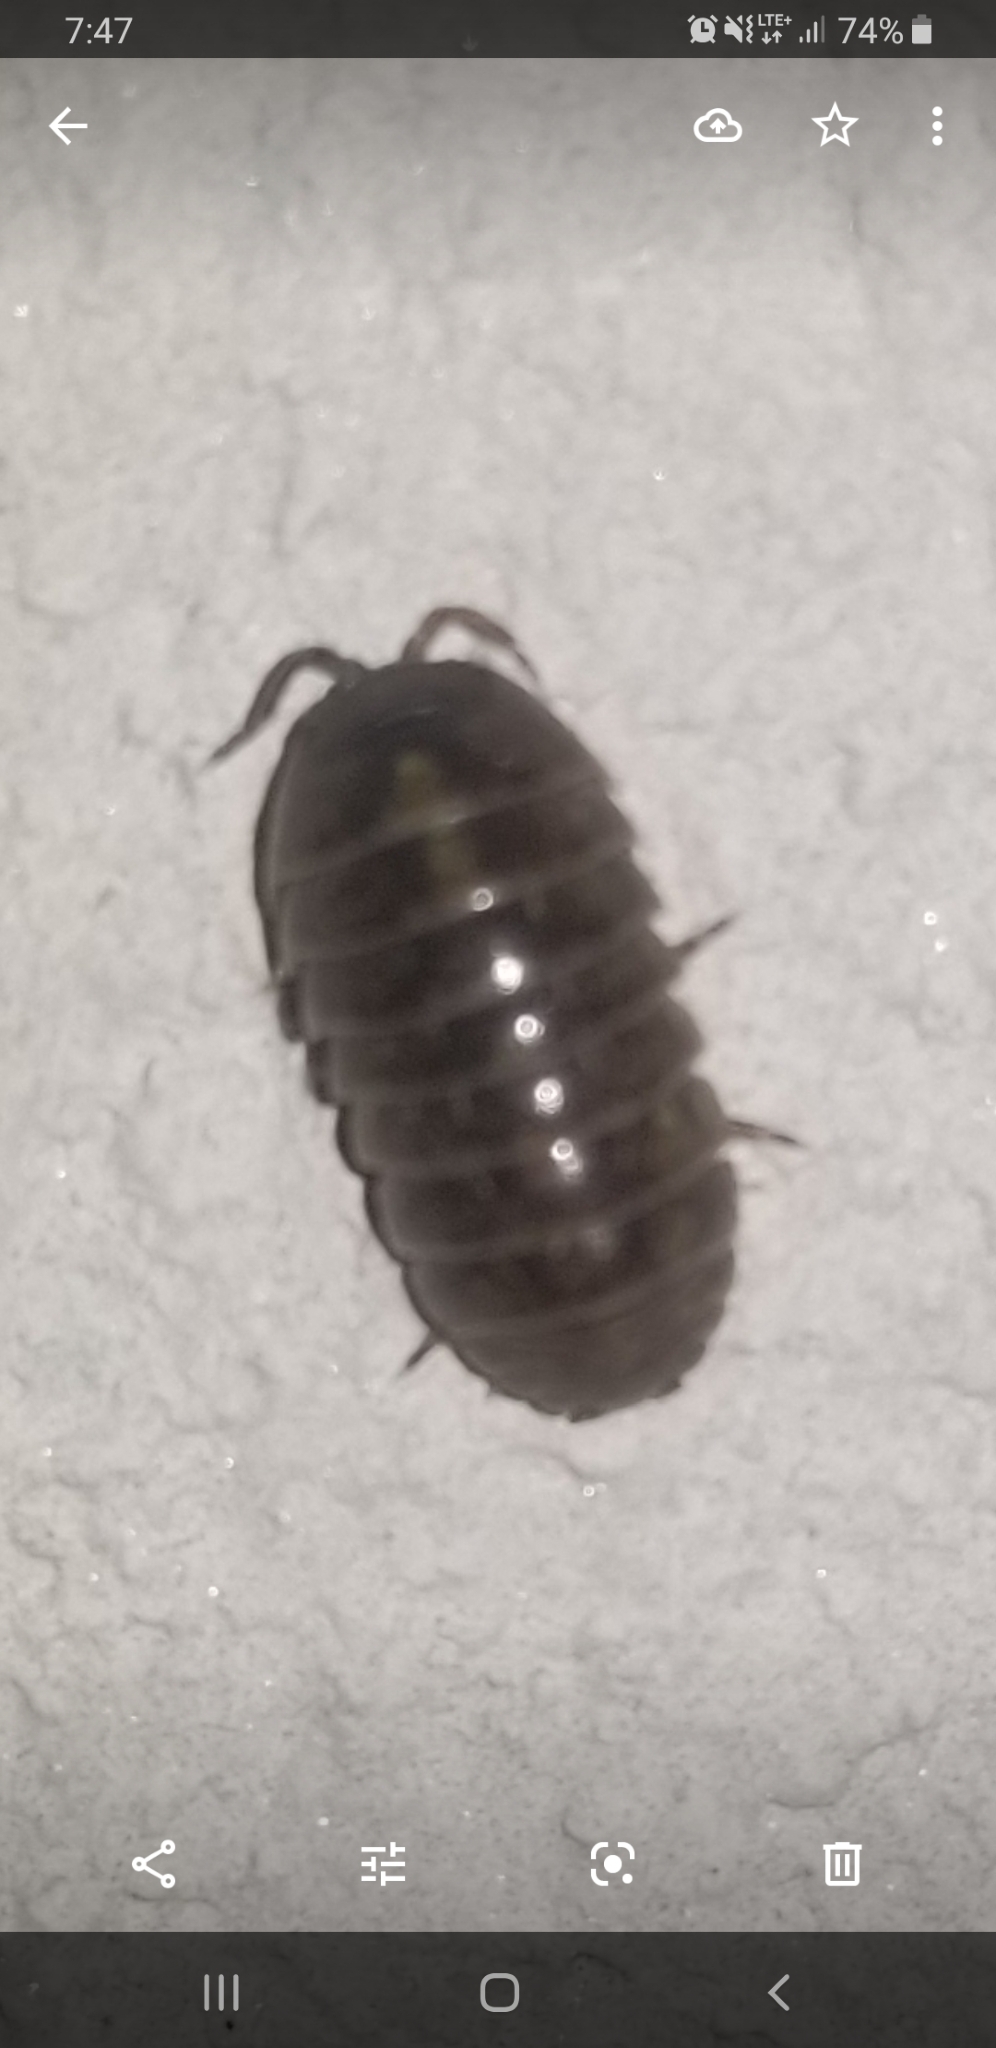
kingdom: Animalia
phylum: Arthropoda
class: Malacostraca
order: Isopoda
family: Armadillidiidae
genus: Armadillidium
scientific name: Armadillidium vulgare
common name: Common pill woodlouse
